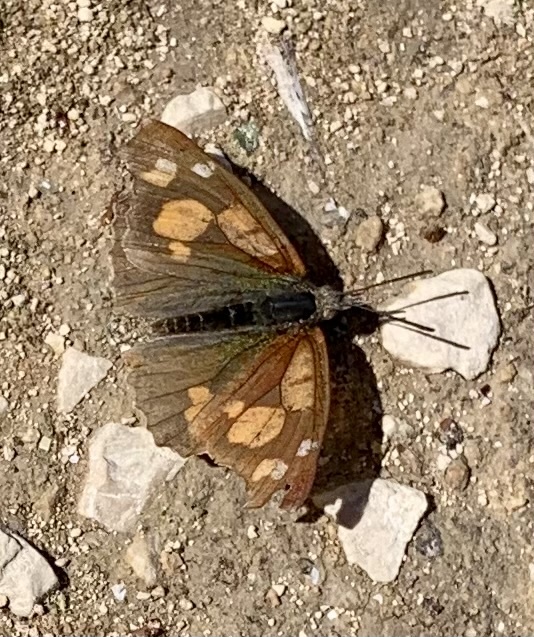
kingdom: Animalia
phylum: Arthropoda
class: Insecta
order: Lepidoptera
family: Nymphalidae
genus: Libythea
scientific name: Libythea celtis
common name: Nettle-tree butterfly
